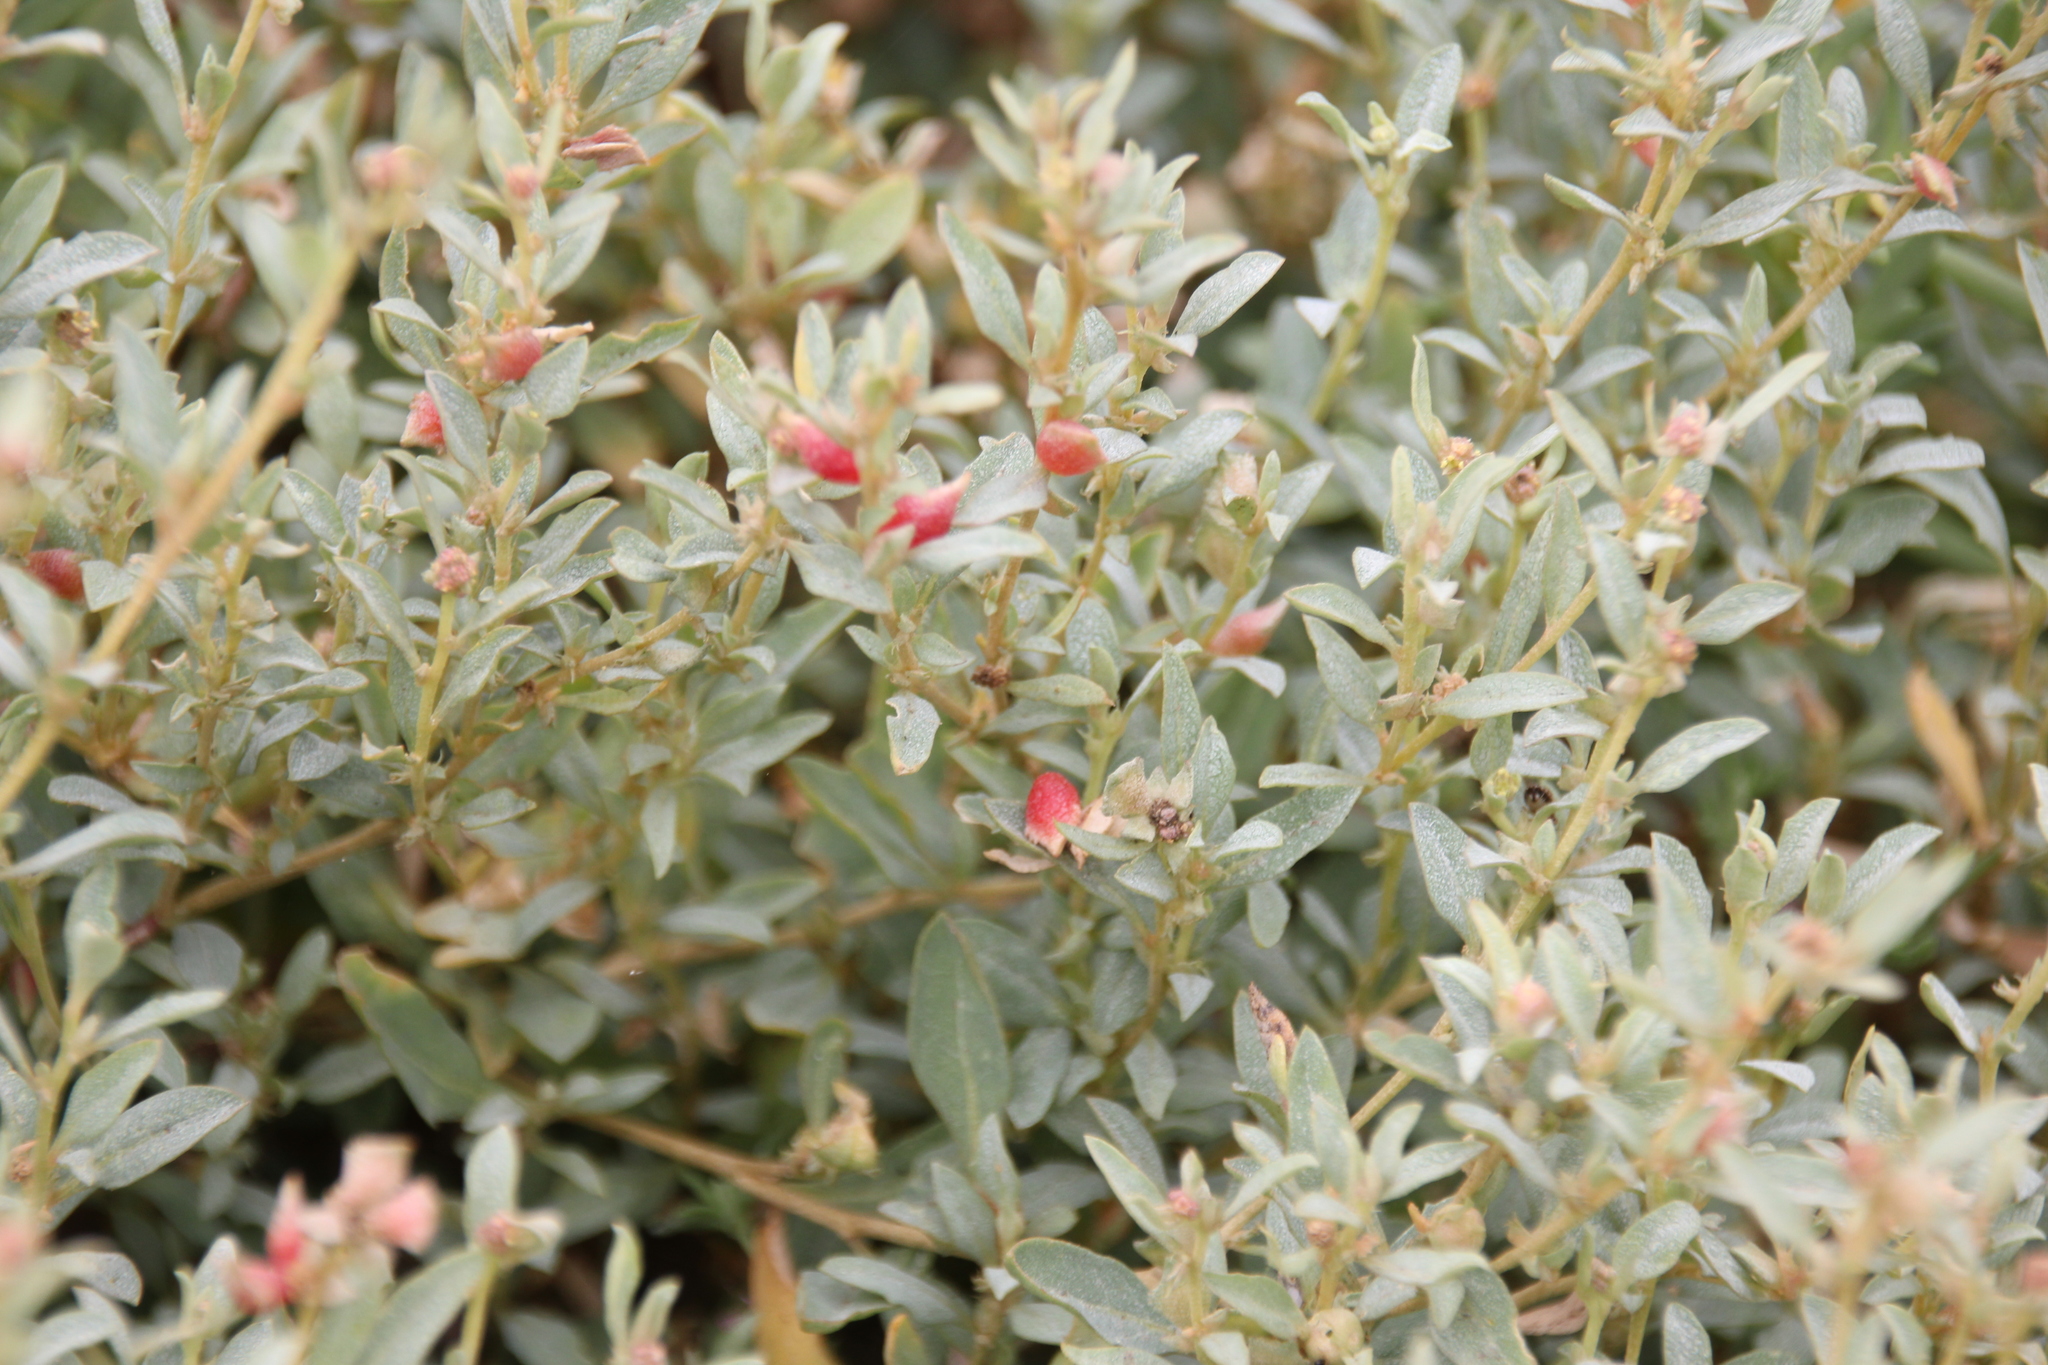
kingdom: Plantae
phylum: Tracheophyta
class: Magnoliopsida
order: Caryophyllales
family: Amaranthaceae
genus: Atriplex
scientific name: Atriplex semibaccata
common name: Australian saltbush
